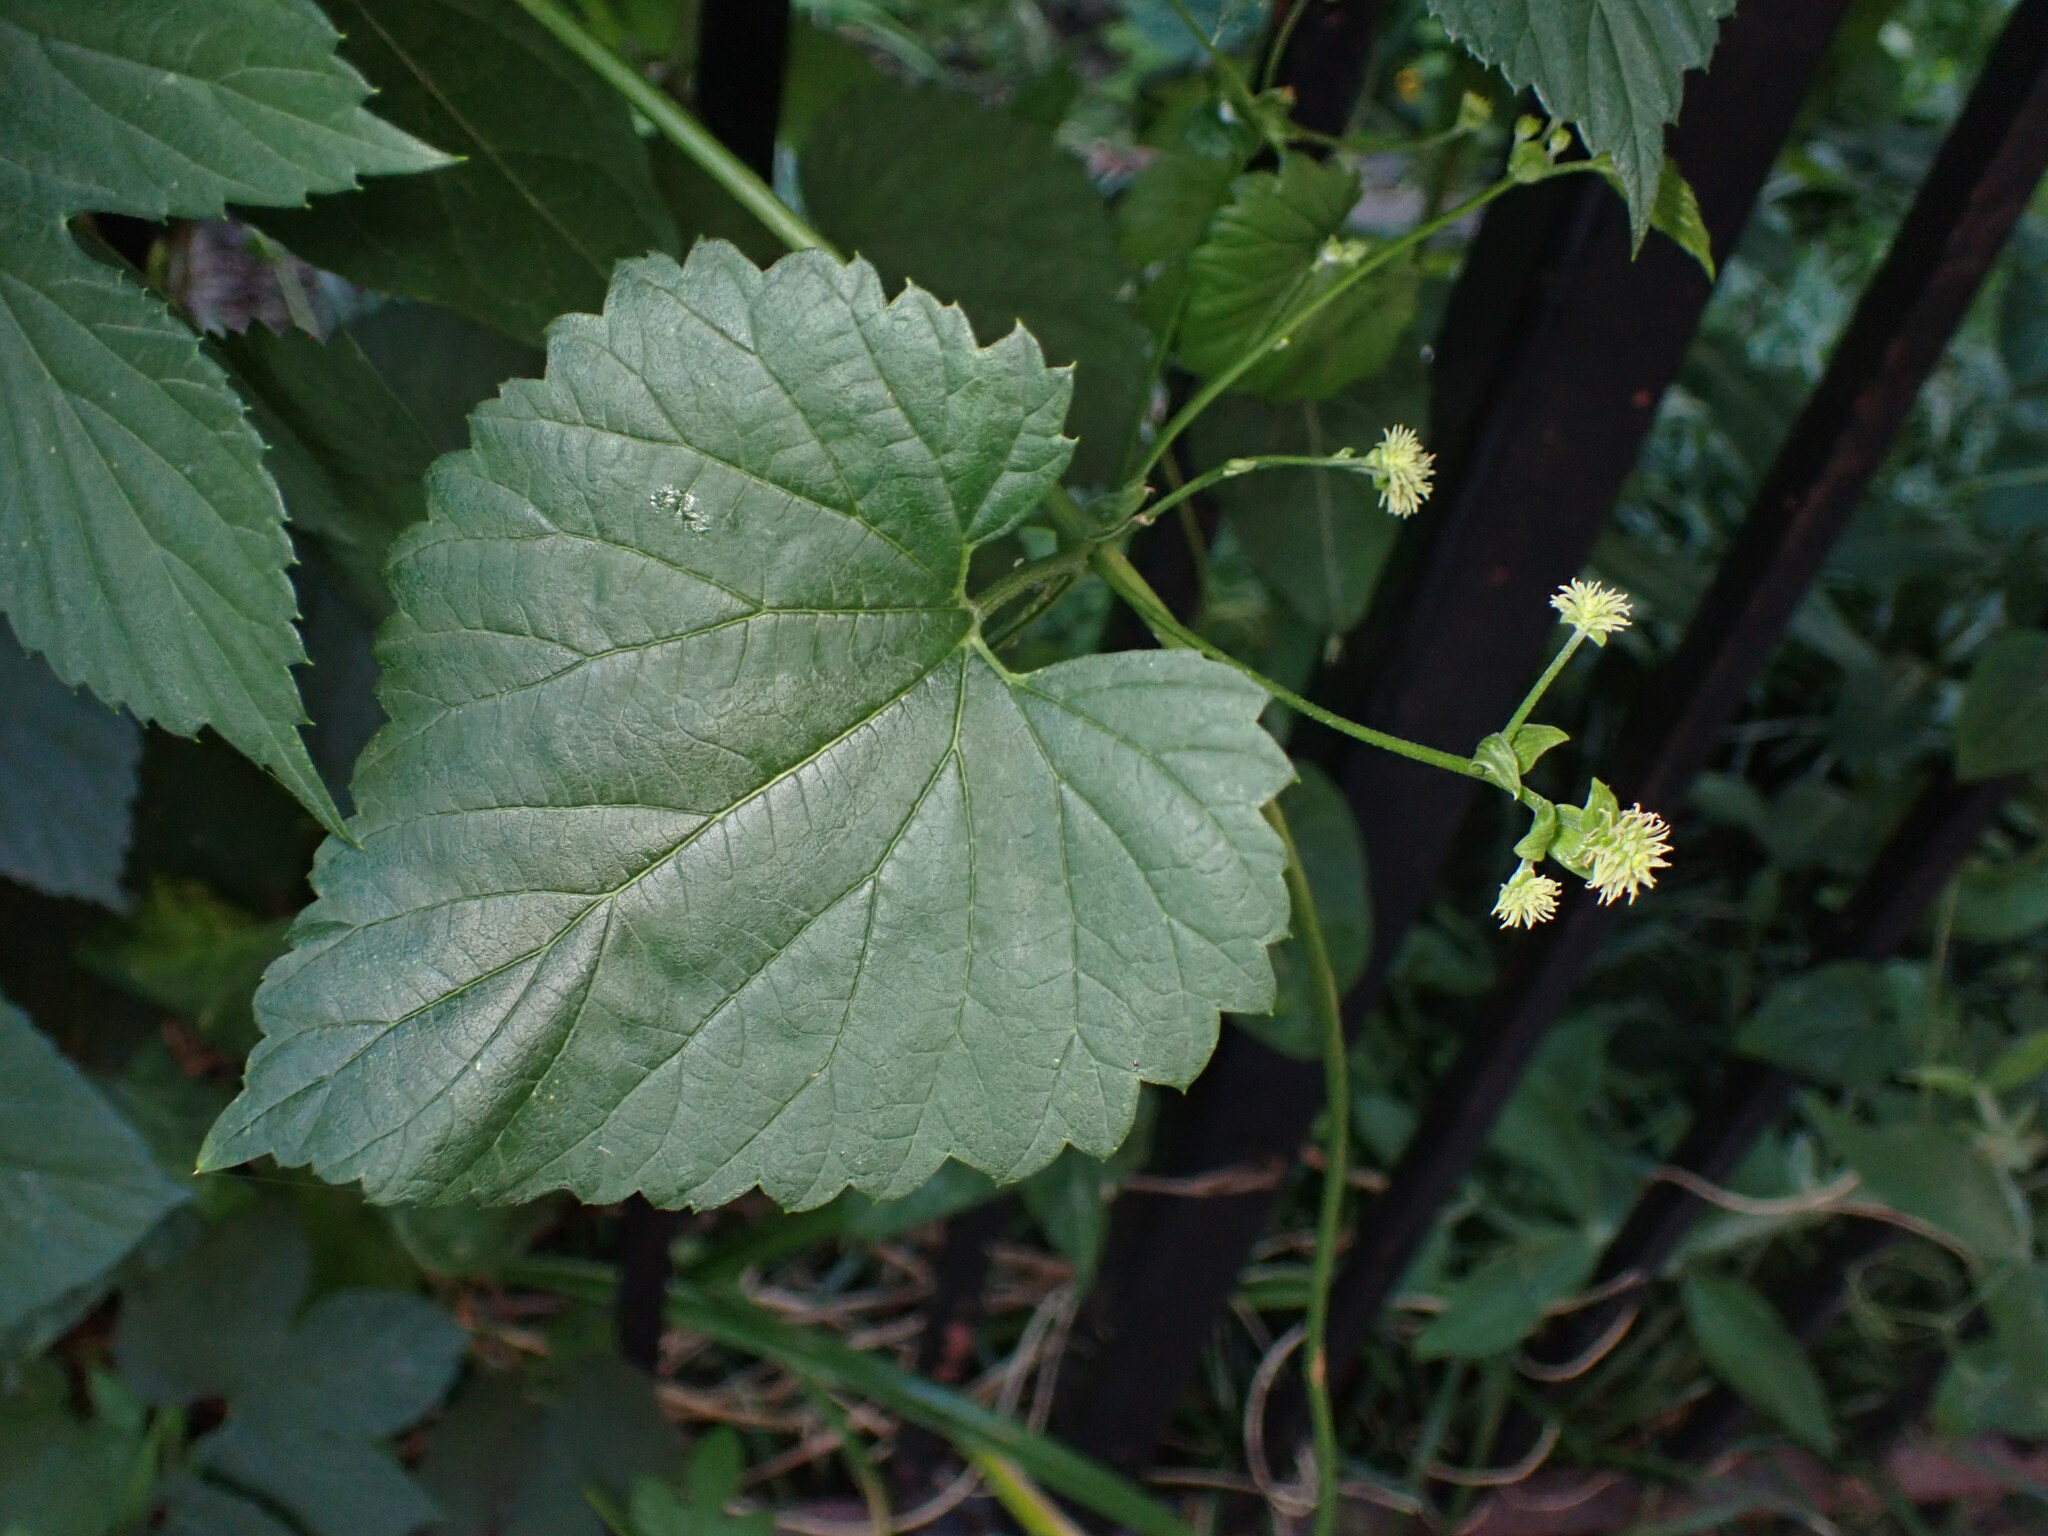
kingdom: Plantae
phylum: Tracheophyta
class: Magnoliopsida
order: Rosales
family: Cannabaceae
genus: Humulus
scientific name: Humulus lupulus
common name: Hop
